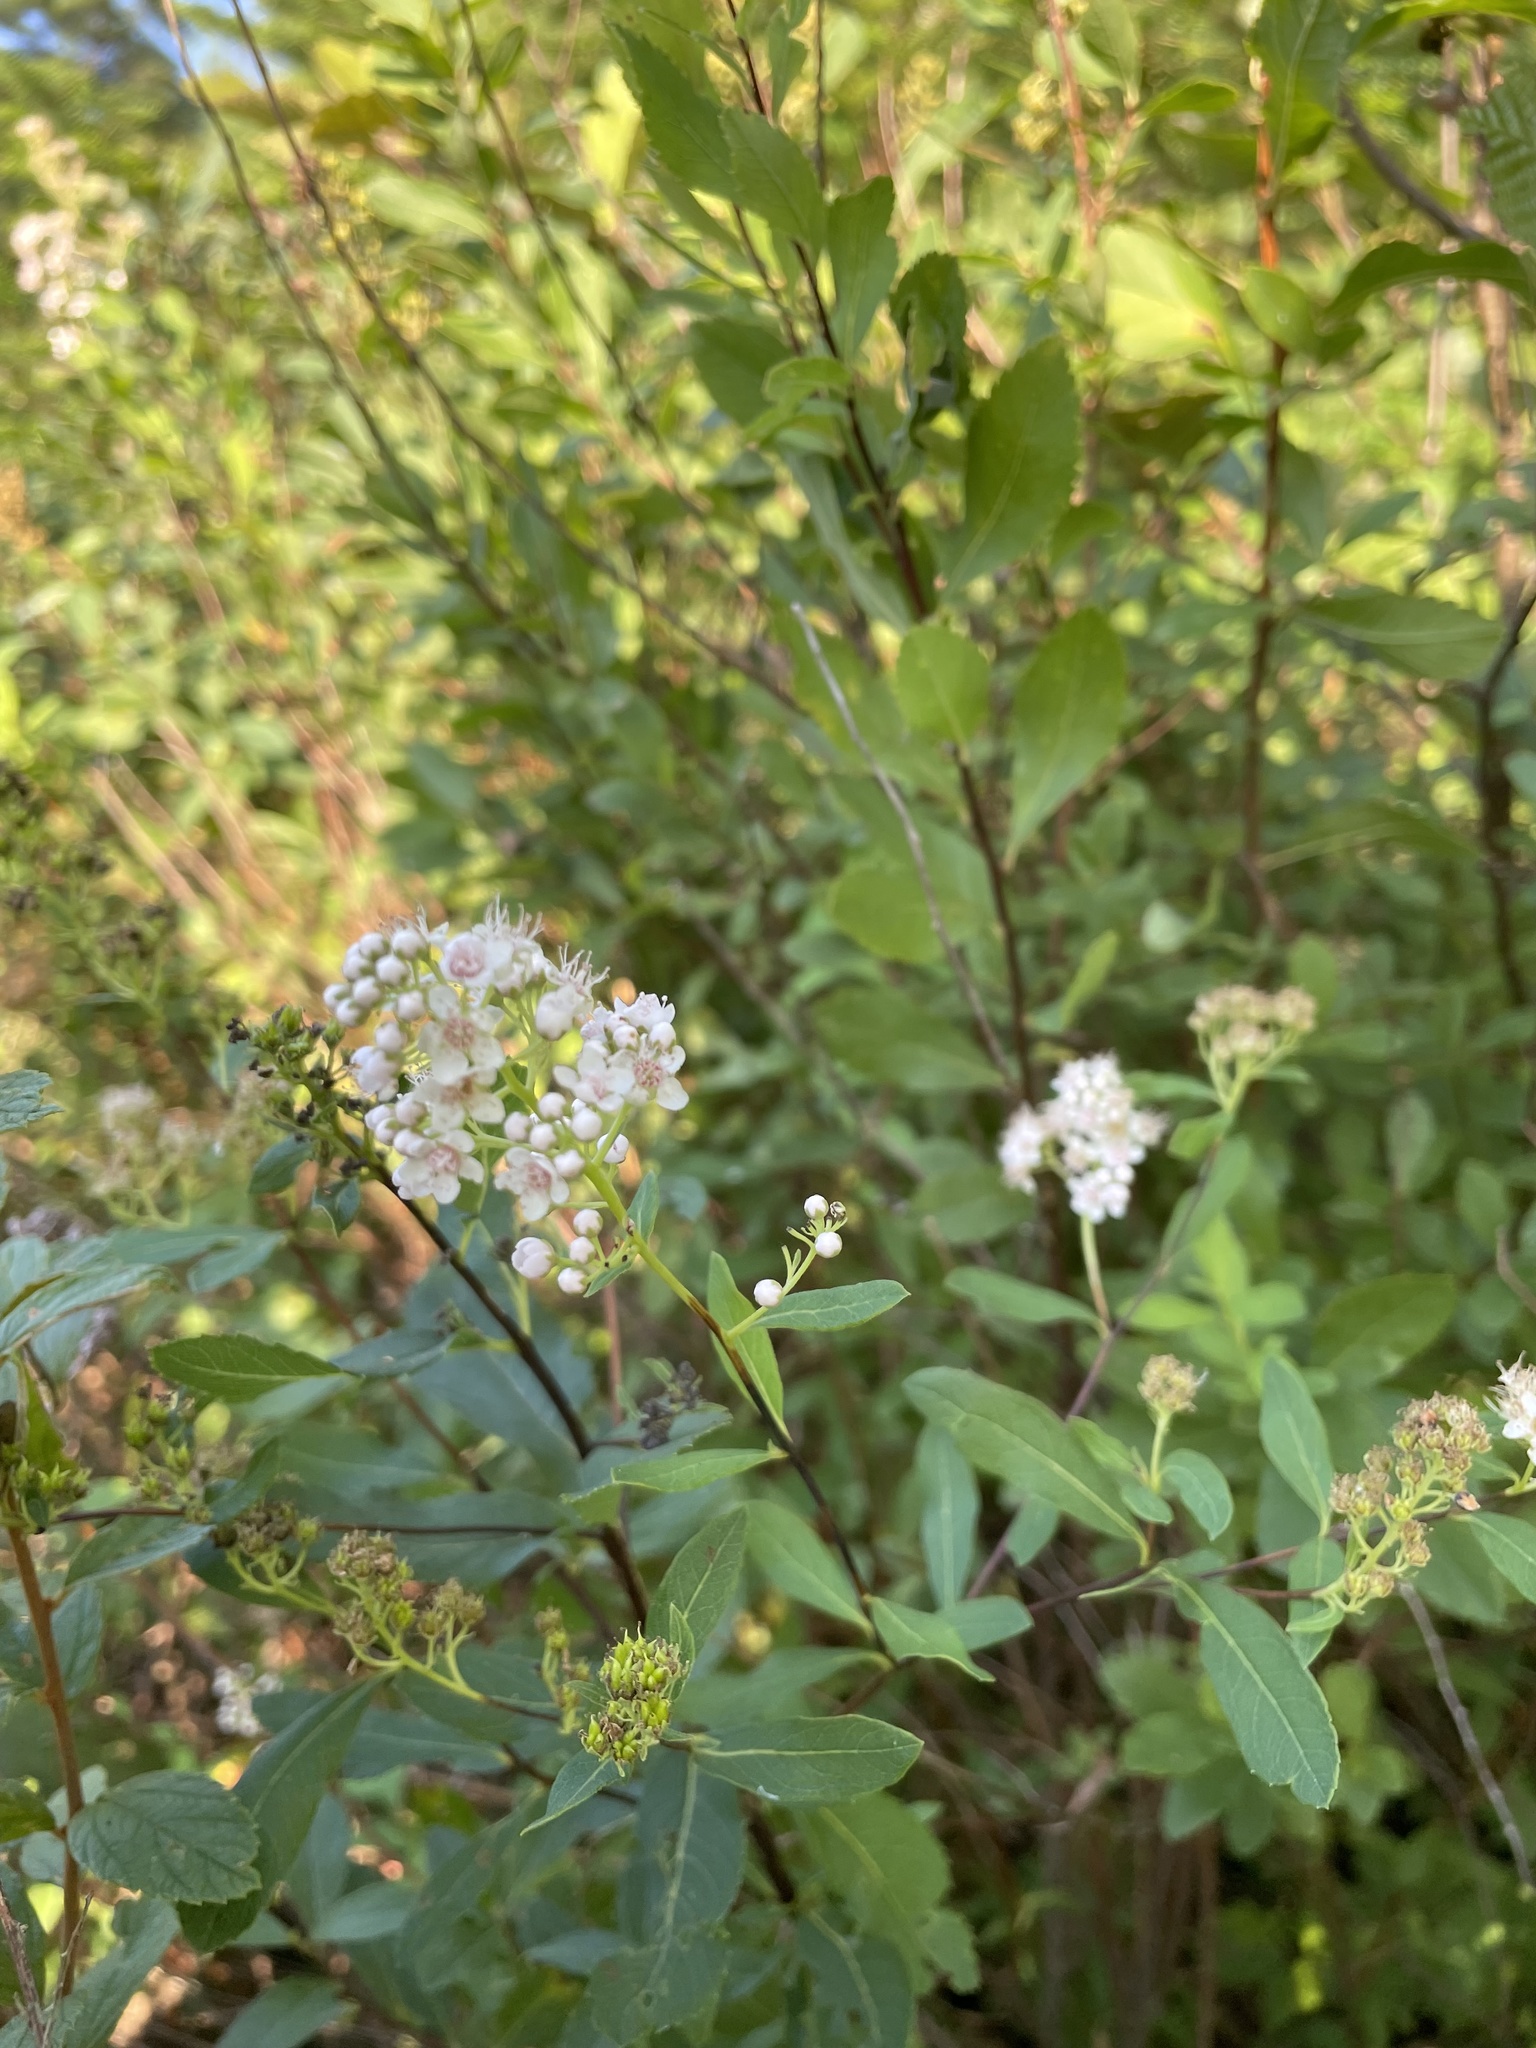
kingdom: Plantae
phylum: Tracheophyta
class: Magnoliopsida
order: Rosales
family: Rosaceae
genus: Spiraea
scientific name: Spiraea alba
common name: Pale bridewort
